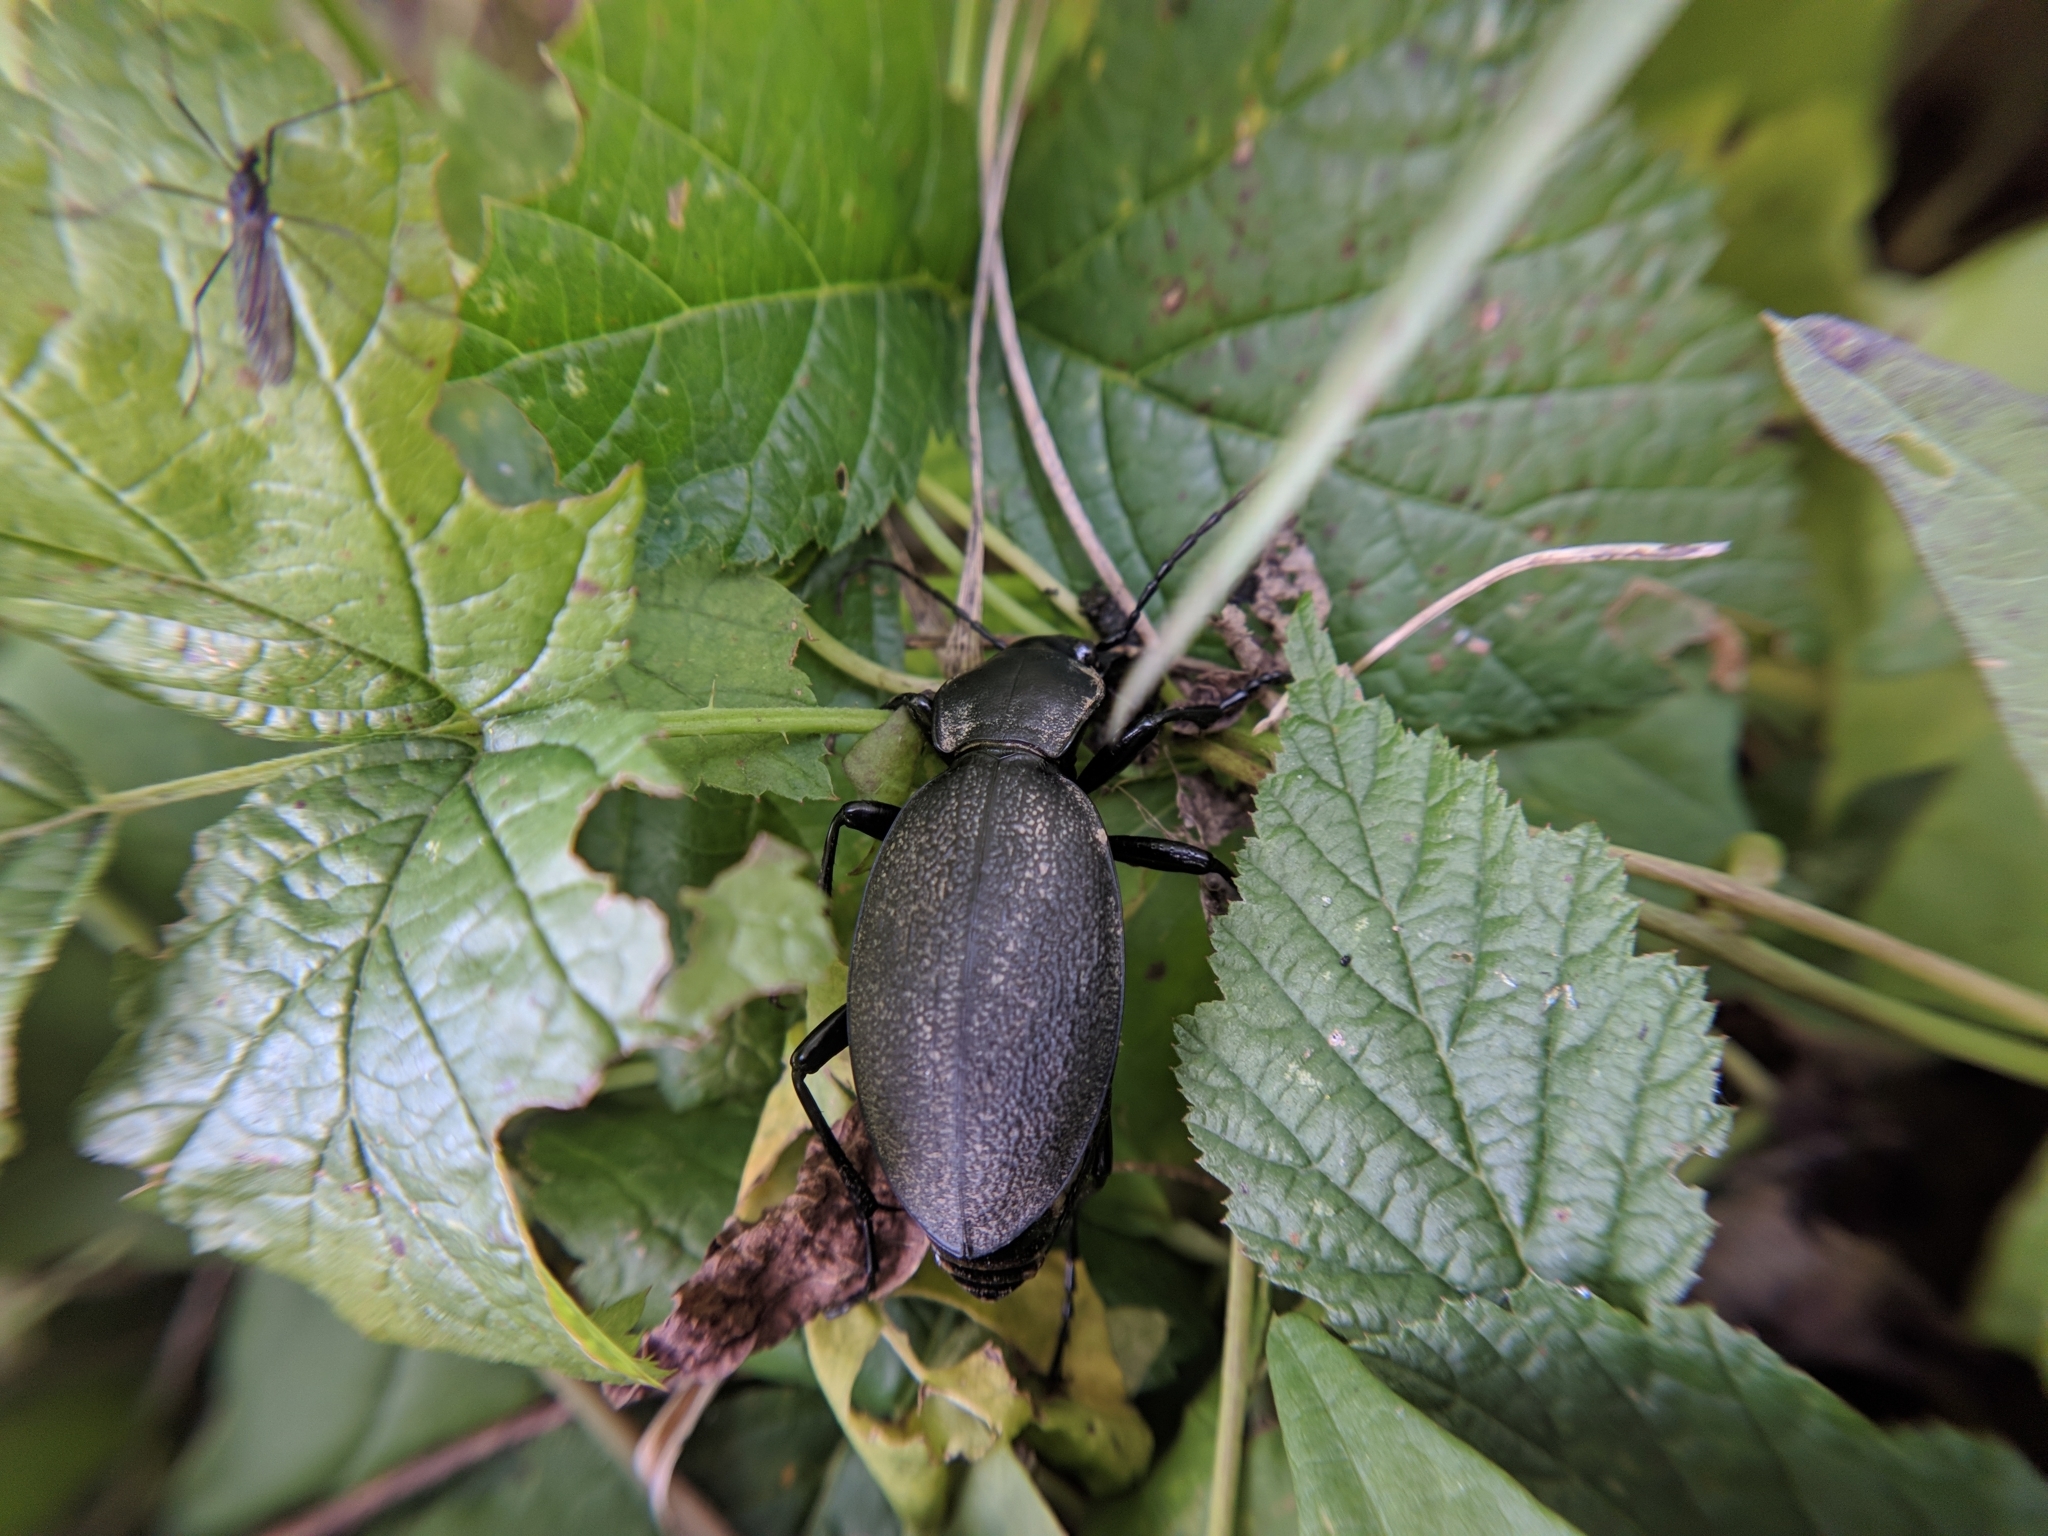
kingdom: Animalia
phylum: Arthropoda
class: Insecta
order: Coleoptera
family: Carabidae
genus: Carabus
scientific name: Carabus coriaceus
